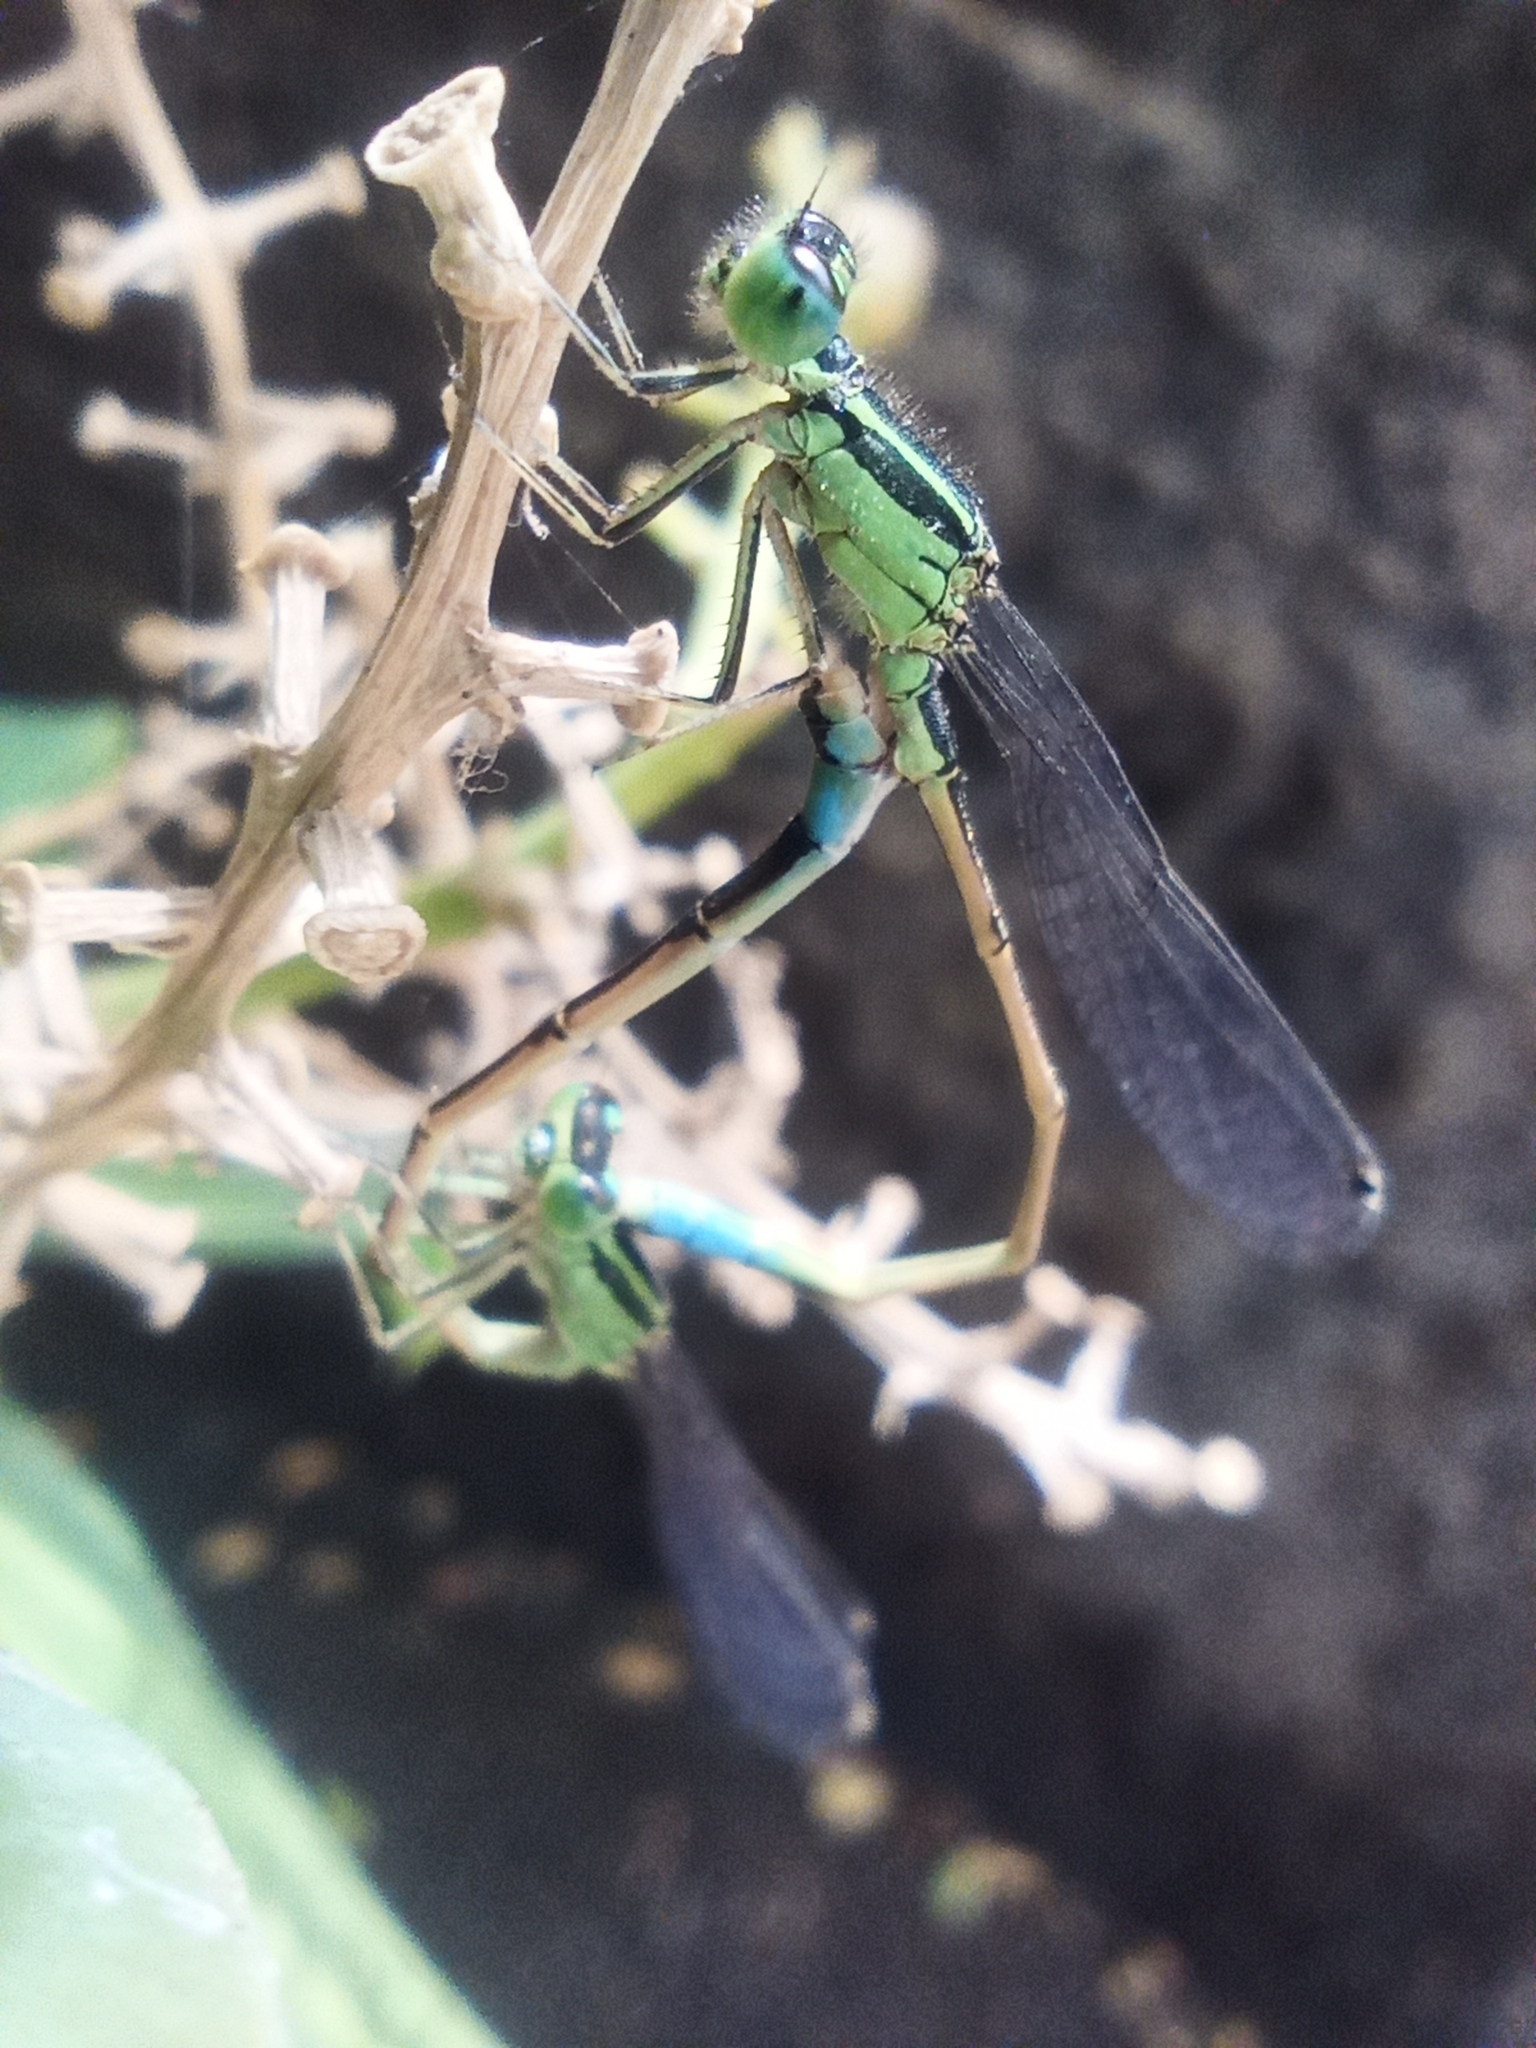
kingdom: Animalia
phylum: Arthropoda
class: Insecta
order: Odonata
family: Coenagrionidae
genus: Ischnura
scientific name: Ischnura saharensis
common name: Sahara bluetail
